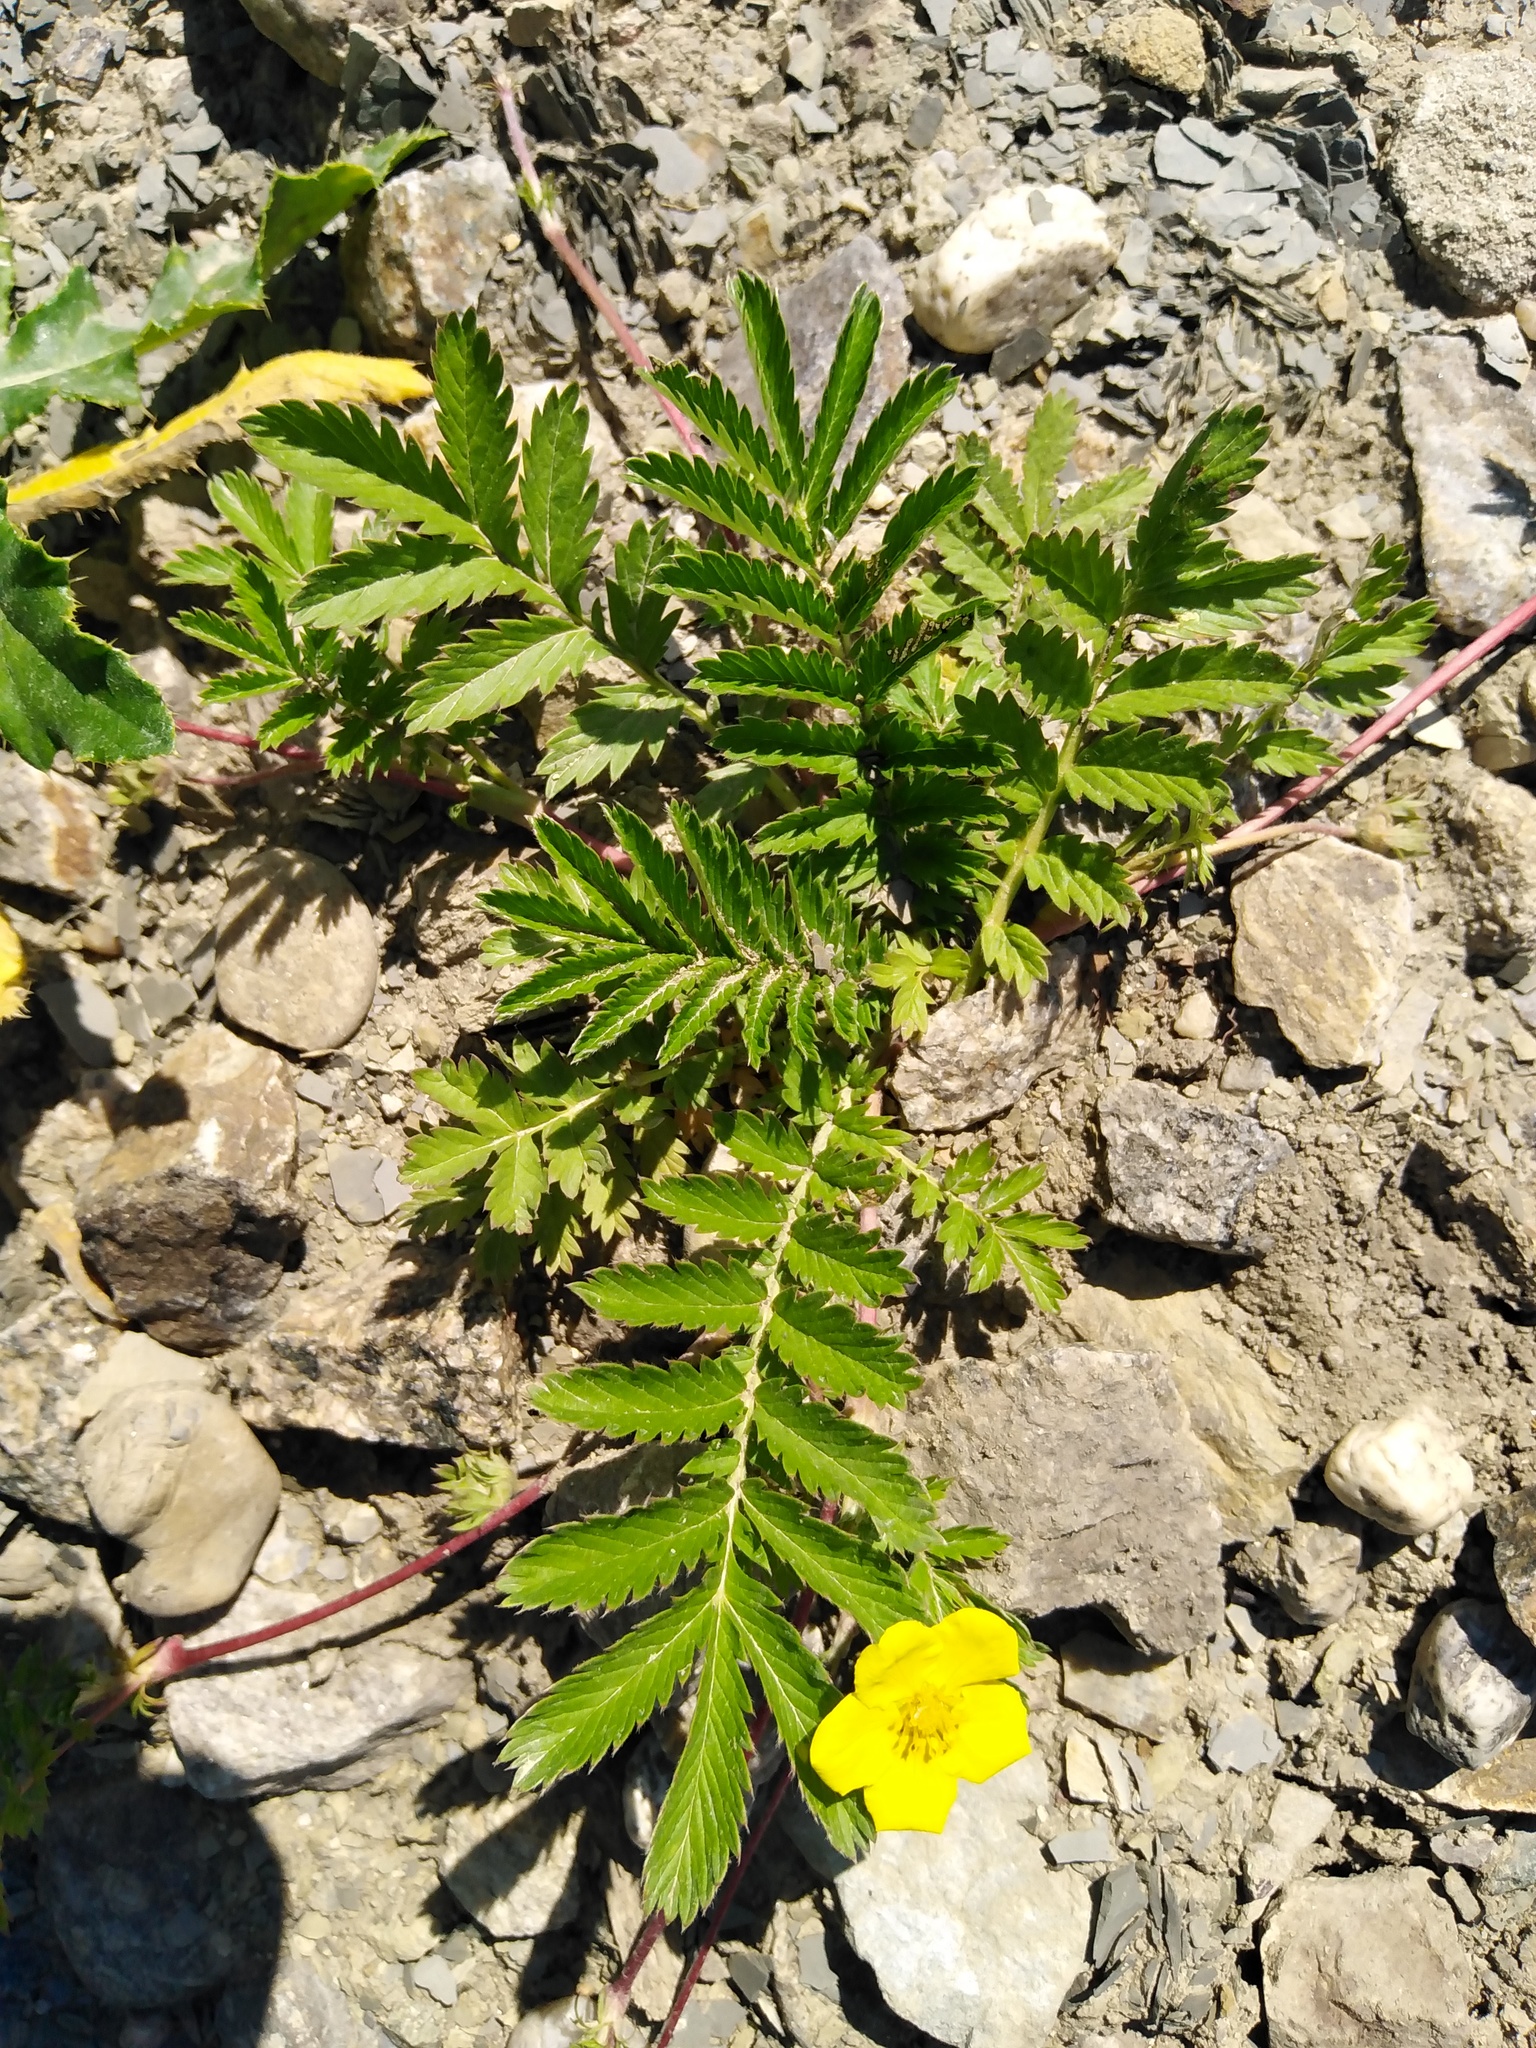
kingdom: Plantae
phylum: Tracheophyta
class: Magnoliopsida
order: Rosales
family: Rosaceae
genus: Argentina
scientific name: Argentina anserina
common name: Common silverweed
